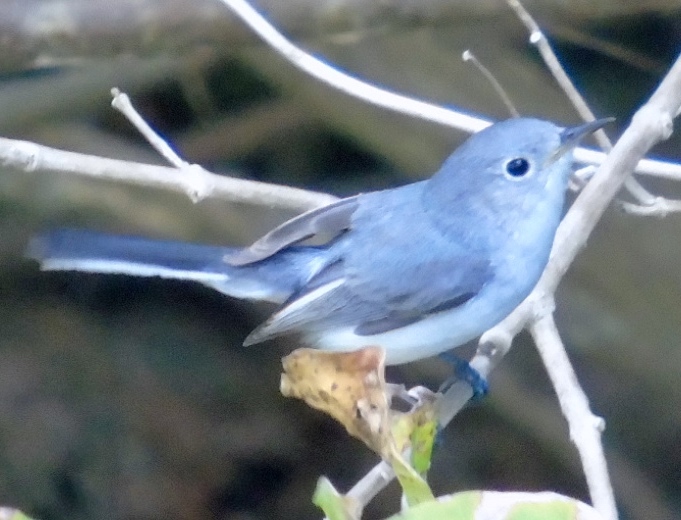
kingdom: Animalia
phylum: Chordata
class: Aves
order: Passeriformes
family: Polioptilidae
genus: Polioptila
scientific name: Polioptila caerulea
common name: Blue-gray gnatcatcher
